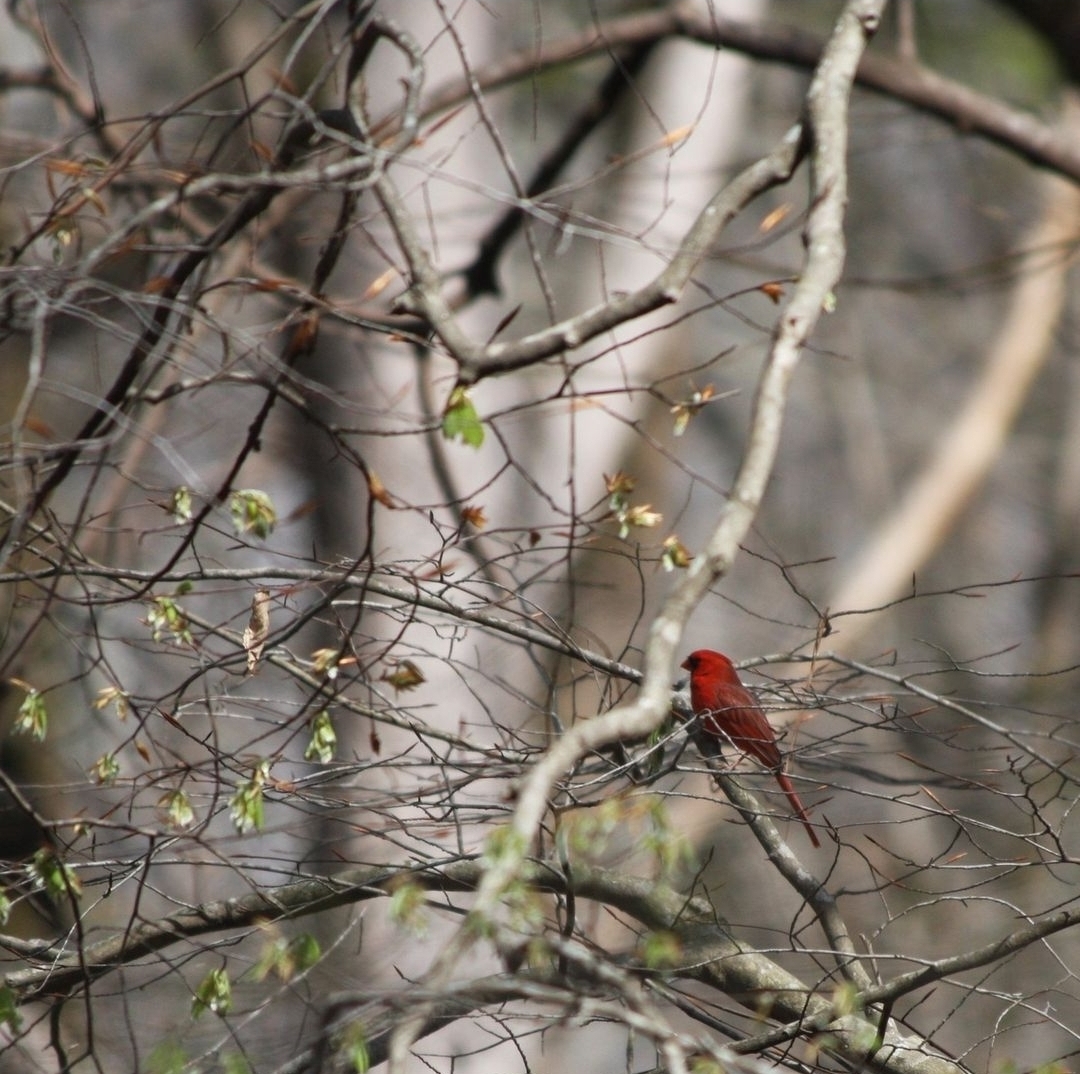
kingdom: Animalia
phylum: Chordata
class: Aves
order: Passeriformes
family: Cardinalidae
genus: Cardinalis
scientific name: Cardinalis cardinalis
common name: Northern cardinal
